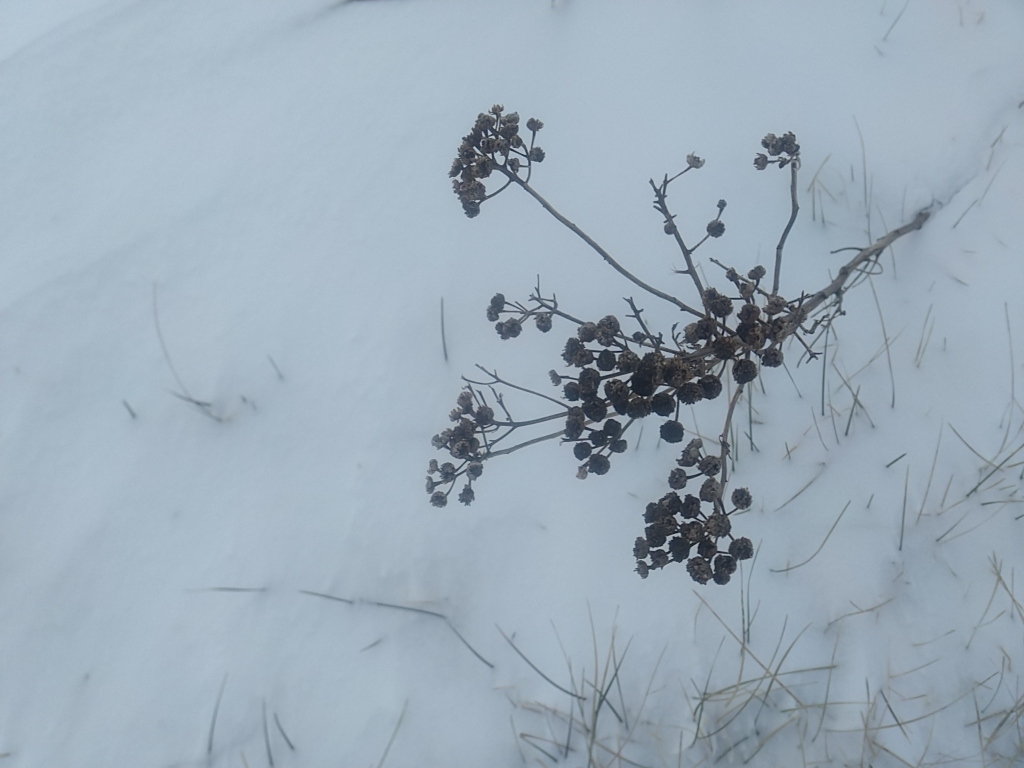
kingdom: Plantae
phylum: Tracheophyta
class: Magnoliopsida
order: Asterales
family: Asteraceae
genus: Tanacetum
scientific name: Tanacetum vulgare
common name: Common tansy
